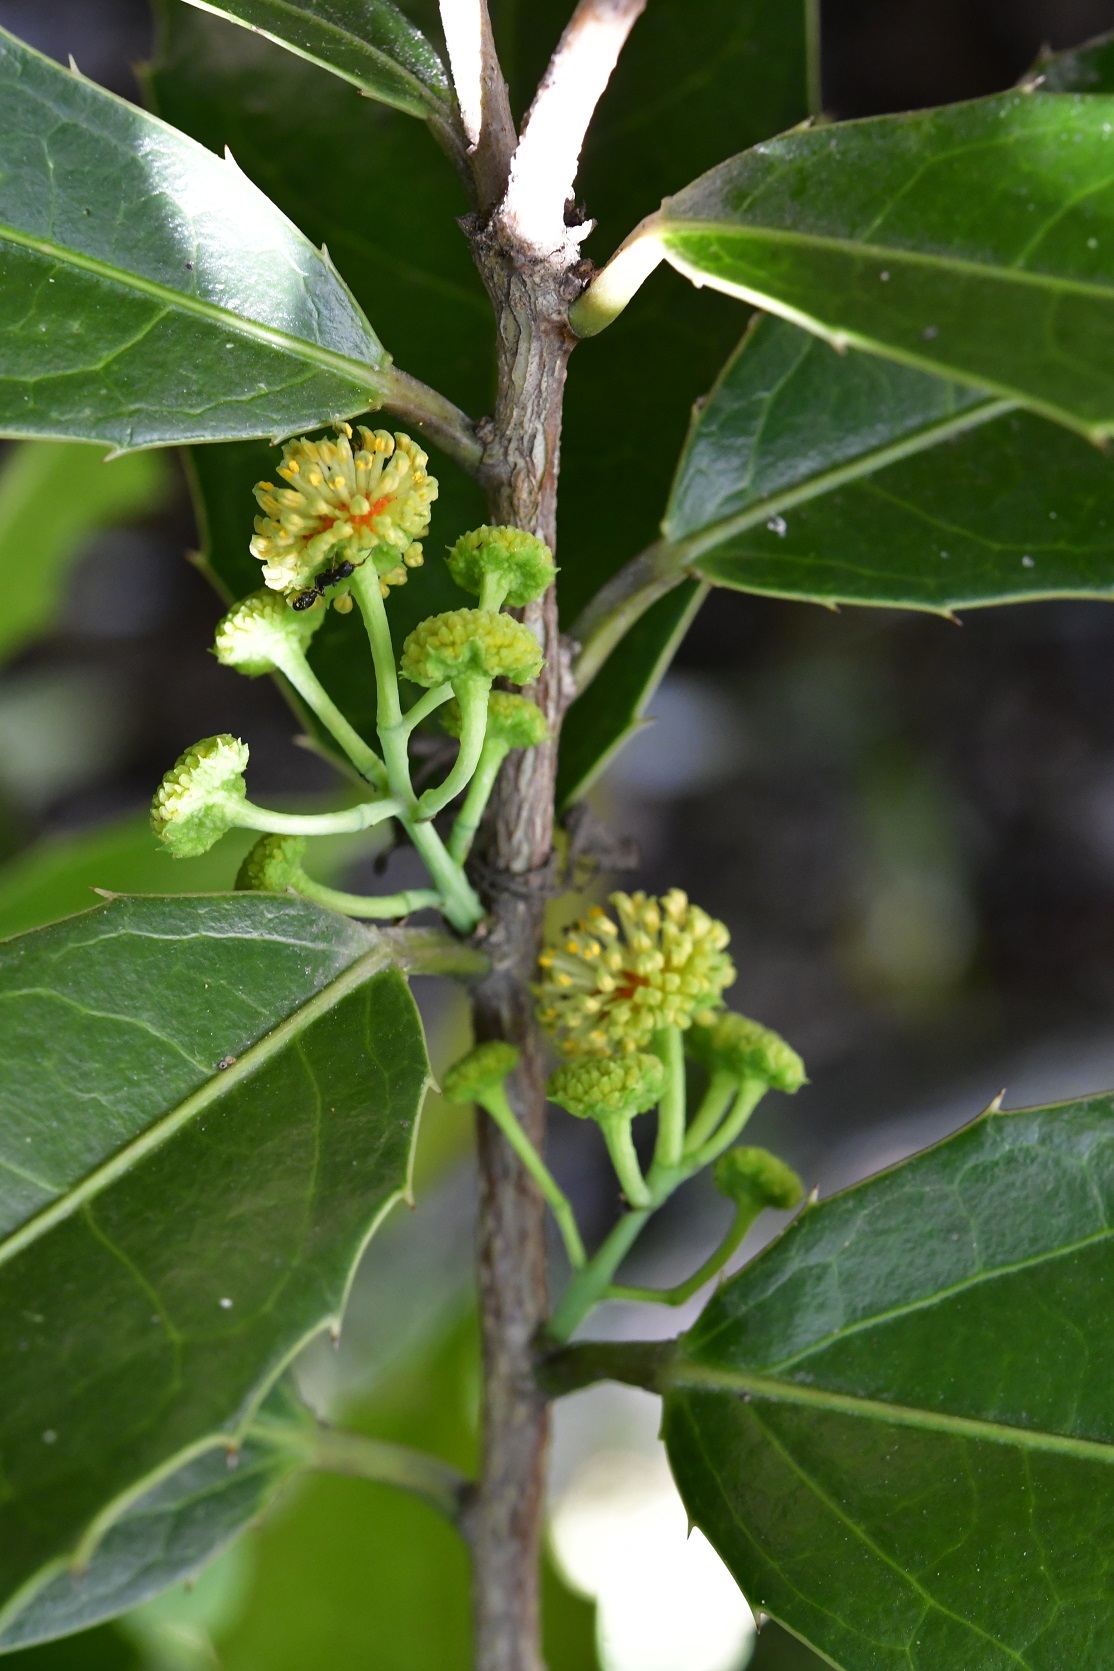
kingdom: Plantae
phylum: Tracheophyta
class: Magnoliopsida
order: Malpighiales
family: Salicaceae
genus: Olmediella
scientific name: Olmediella betschleriana
